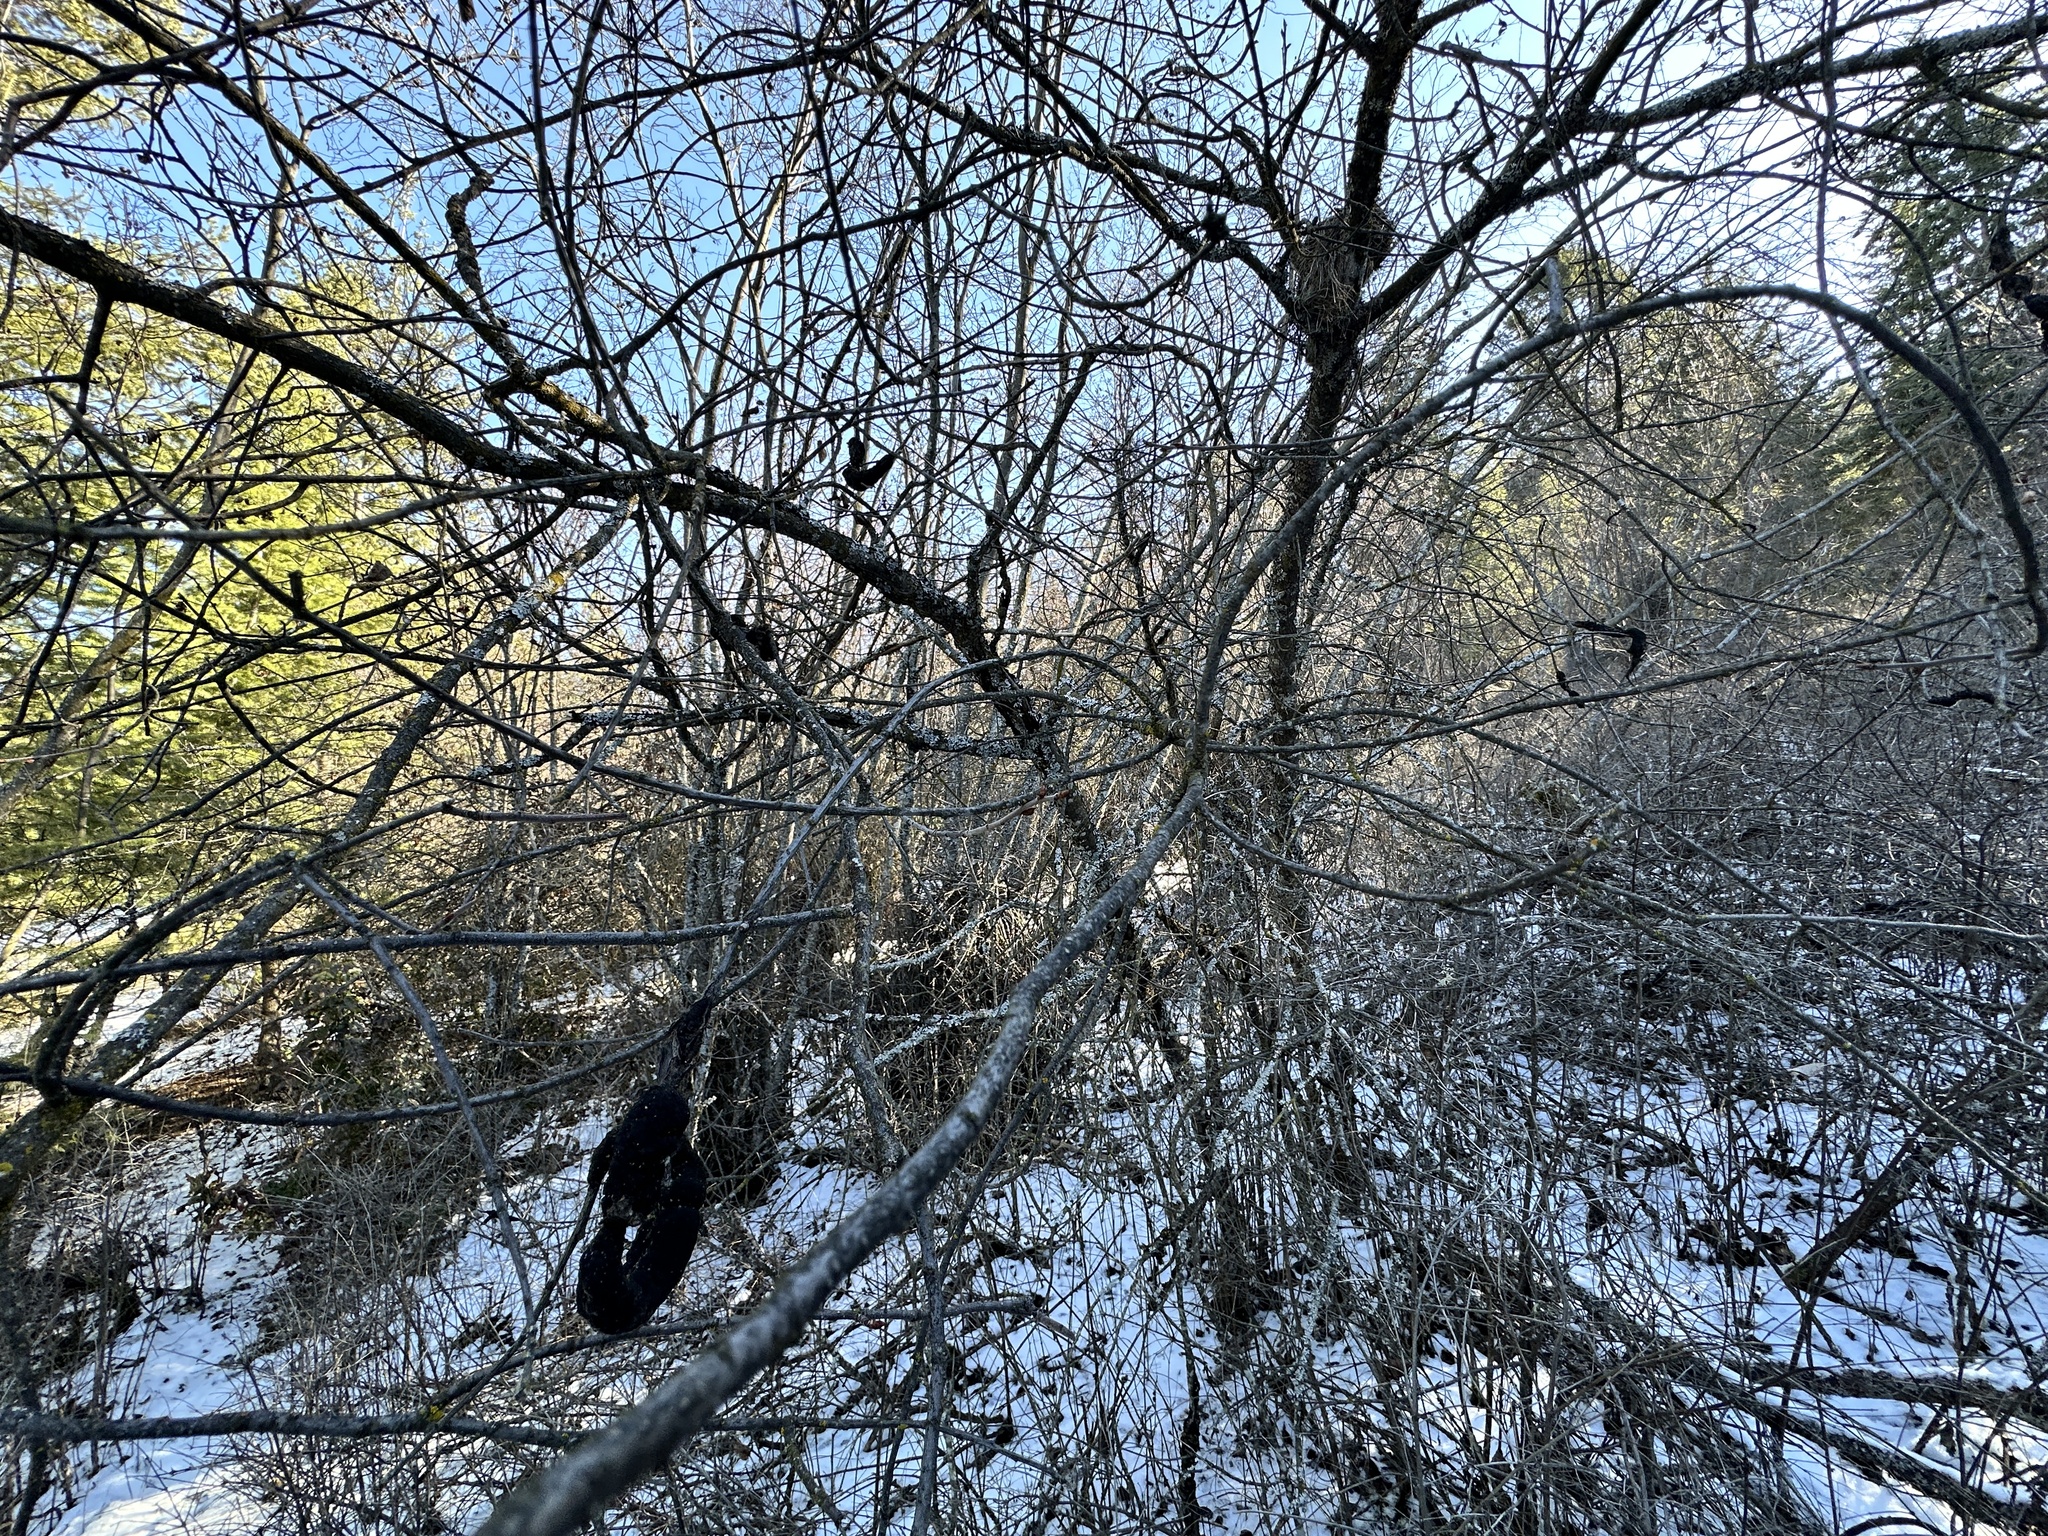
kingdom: Fungi
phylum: Ascomycota
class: Dothideomycetes
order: Venturiales
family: Venturiaceae
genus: Apiosporina
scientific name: Apiosporina morbosa
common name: Black knot
